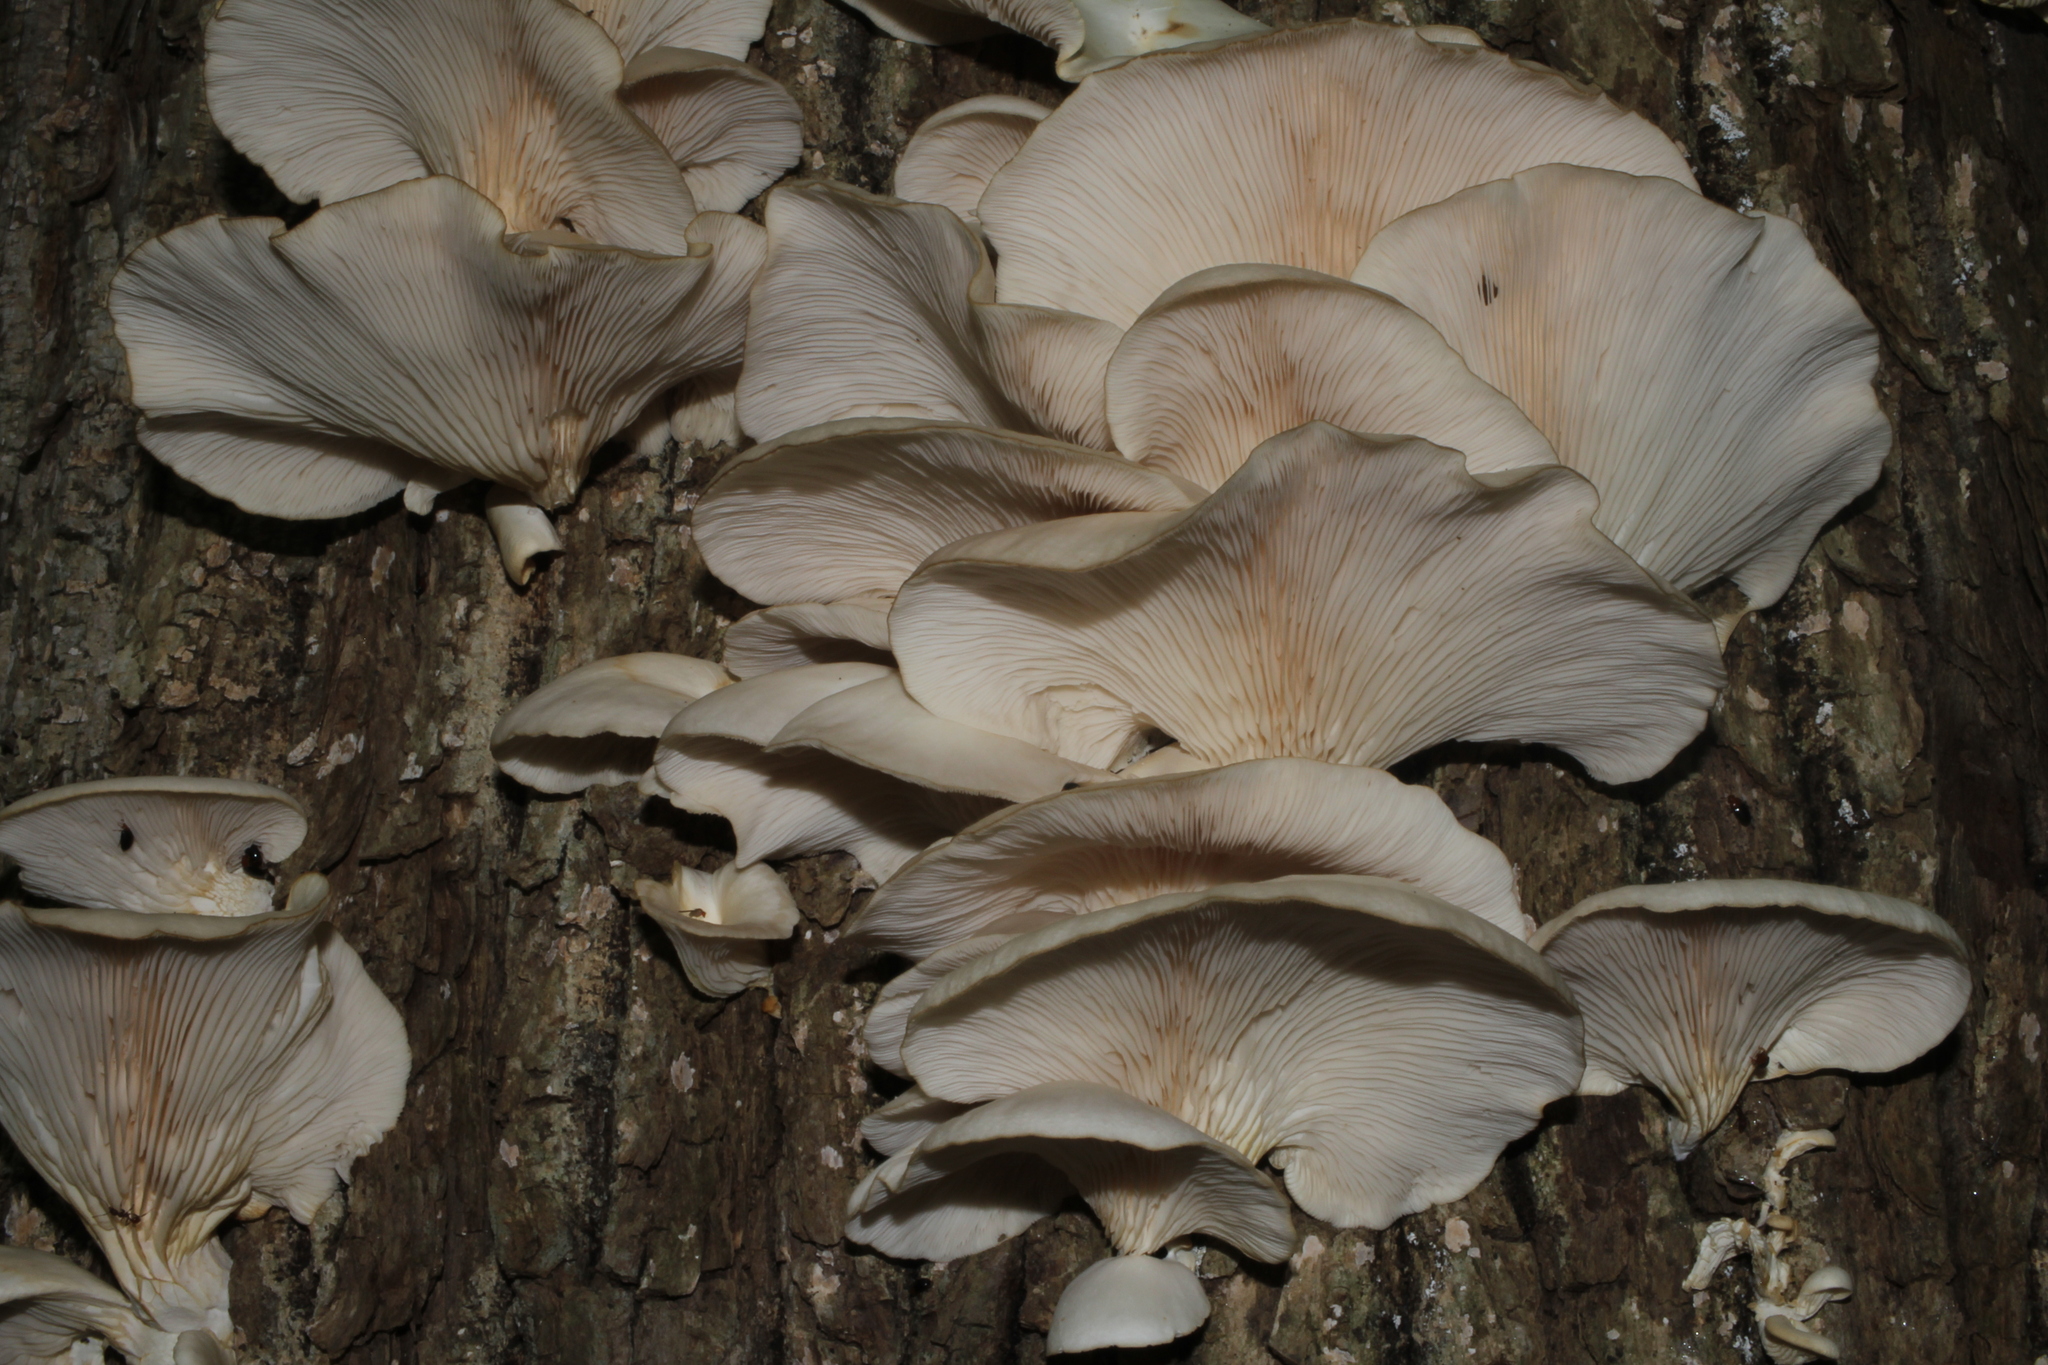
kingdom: Fungi
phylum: Basidiomycota
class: Agaricomycetes
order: Agaricales
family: Pleurotaceae
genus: Pleurotus
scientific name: Pleurotus pulmonarius
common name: Pale oyster
